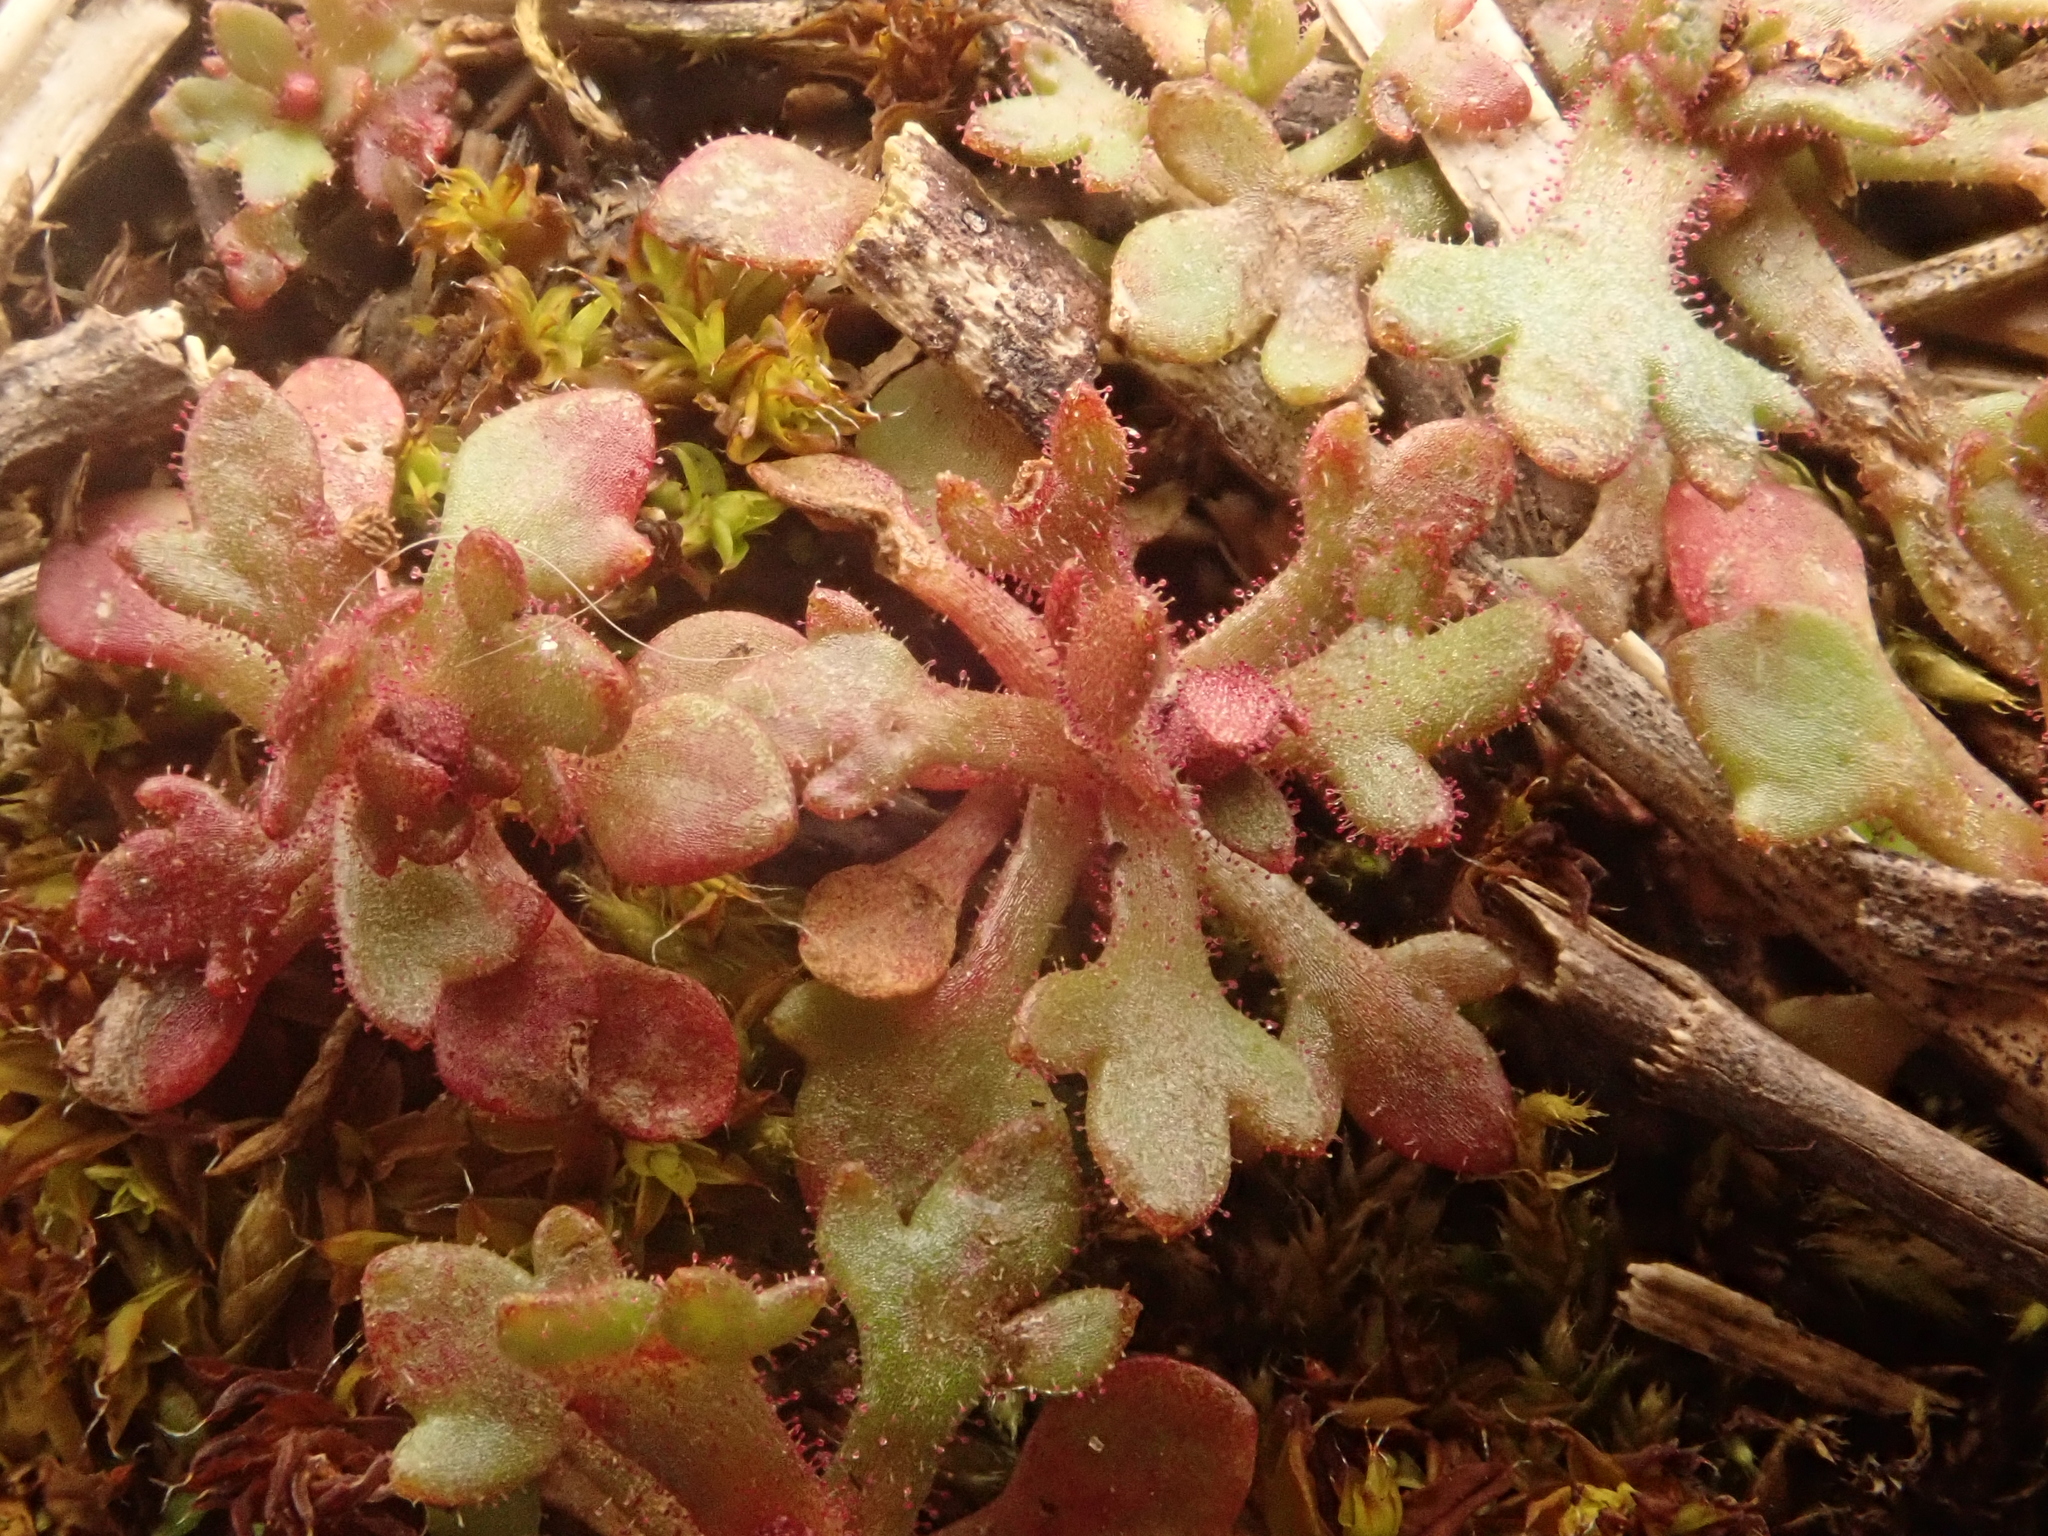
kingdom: Plantae
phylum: Tracheophyta
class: Magnoliopsida
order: Saxifragales
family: Saxifragaceae
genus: Saxifraga
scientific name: Saxifraga tridactylites
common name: Rue-leaved saxifrage
